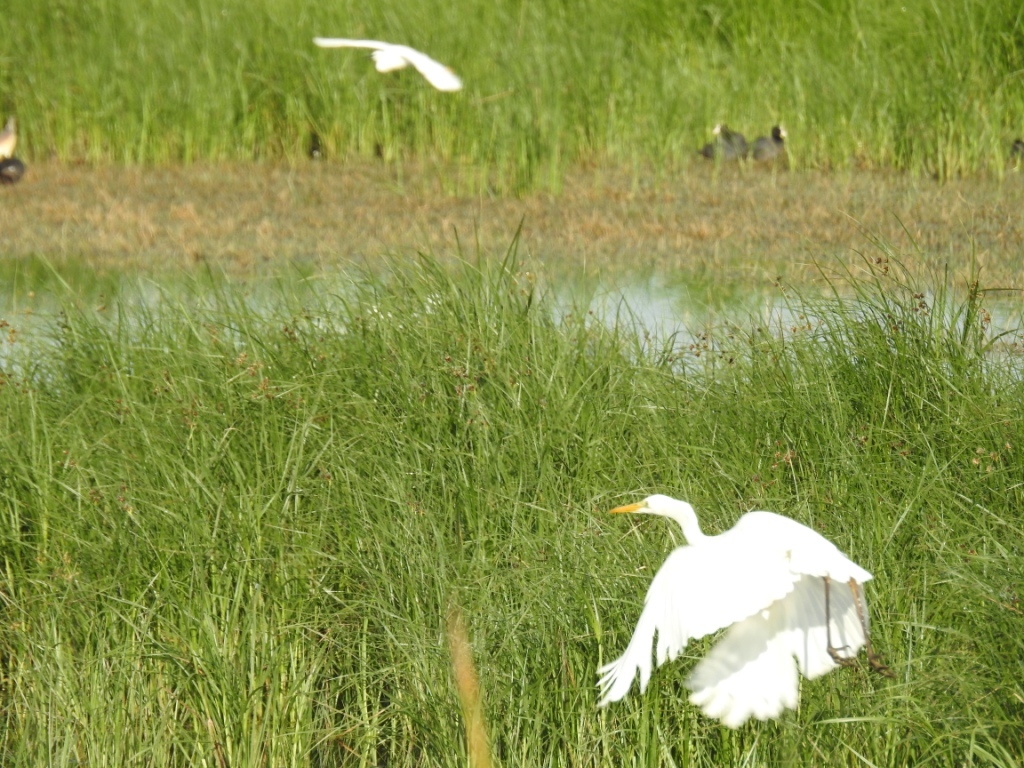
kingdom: Animalia
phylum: Chordata
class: Aves
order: Pelecaniformes
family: Ardeidae
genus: Ardea
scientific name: Ardea alba
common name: Great egret
